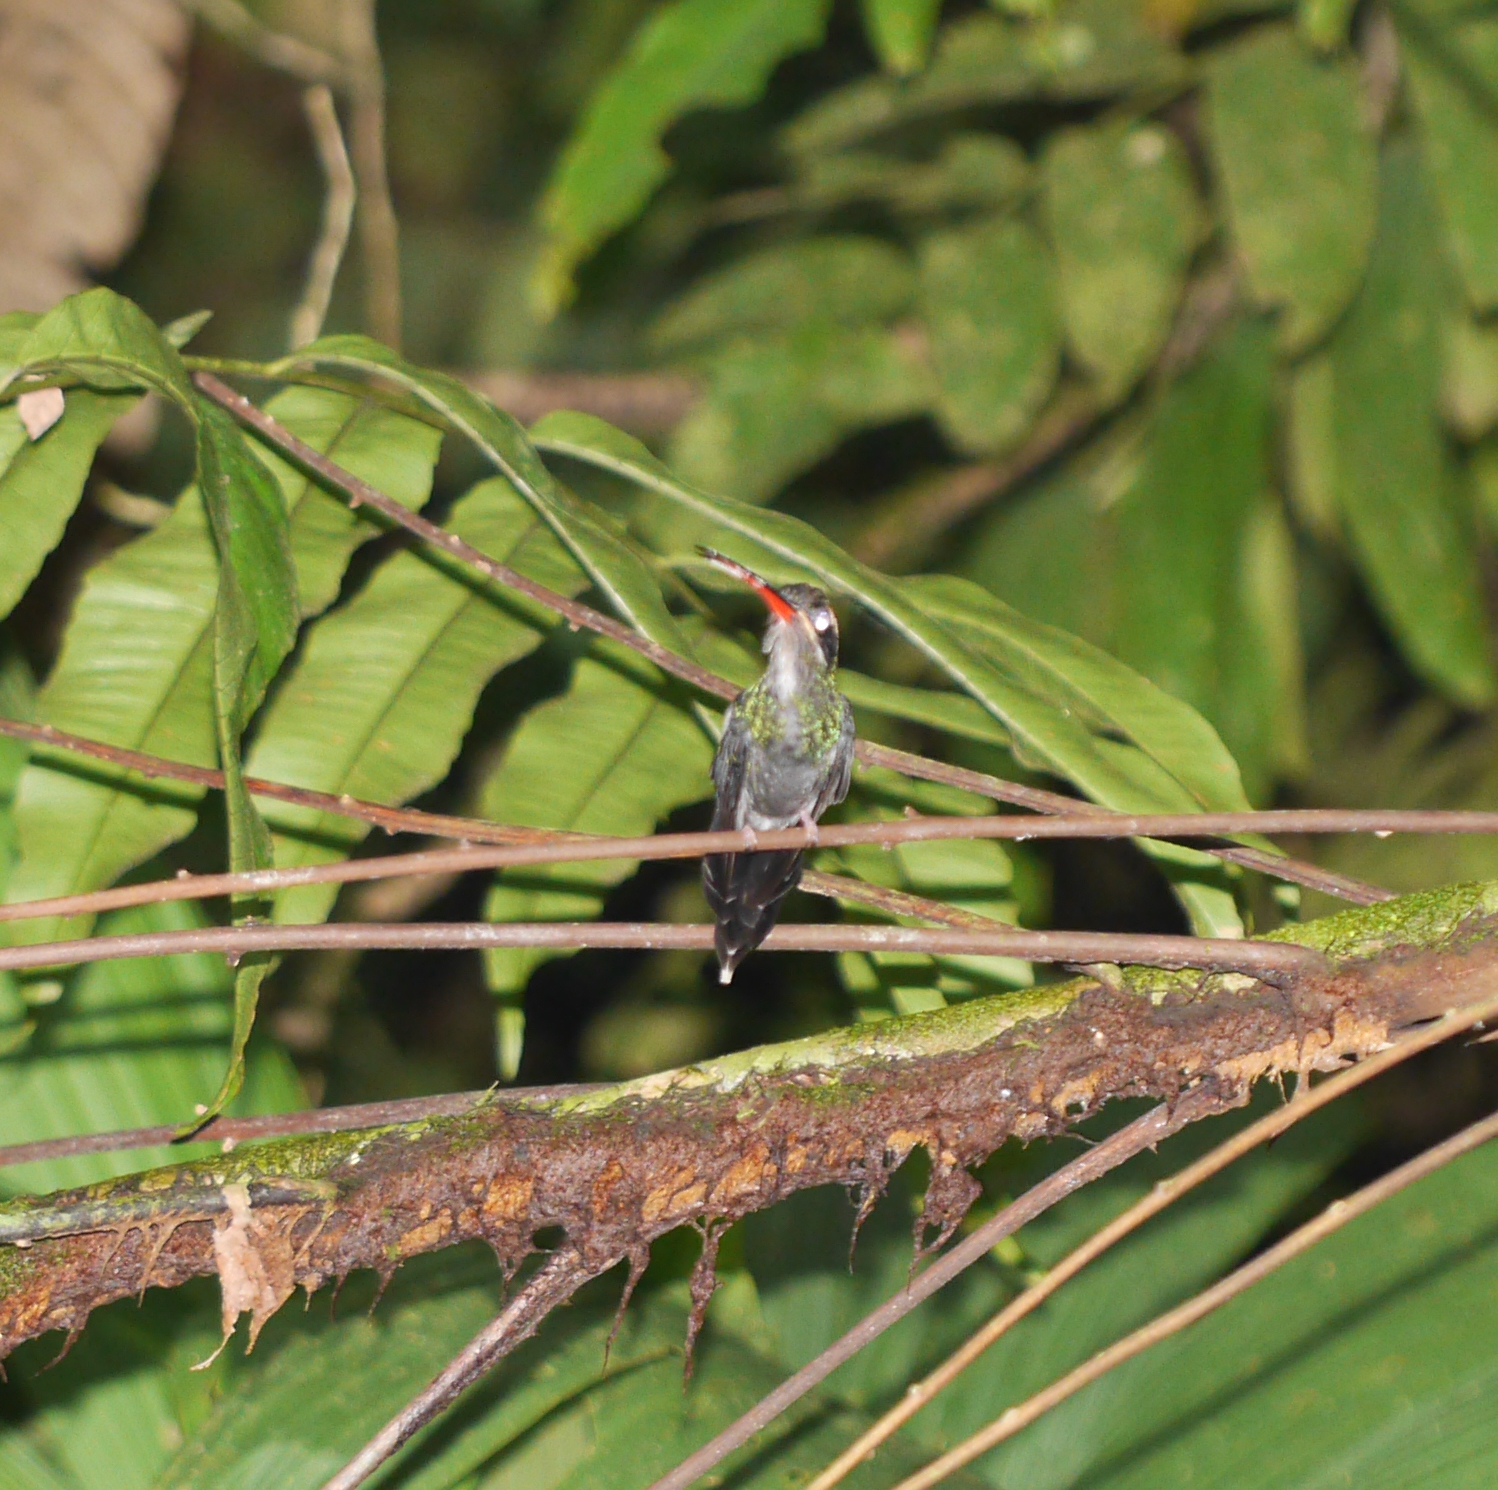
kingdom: Animalia
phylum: Chordata
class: Aves
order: Apodiformes
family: Trochilidae
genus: Phaethornis
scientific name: Phaethornis yaruqui
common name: White-whiskered hermit
